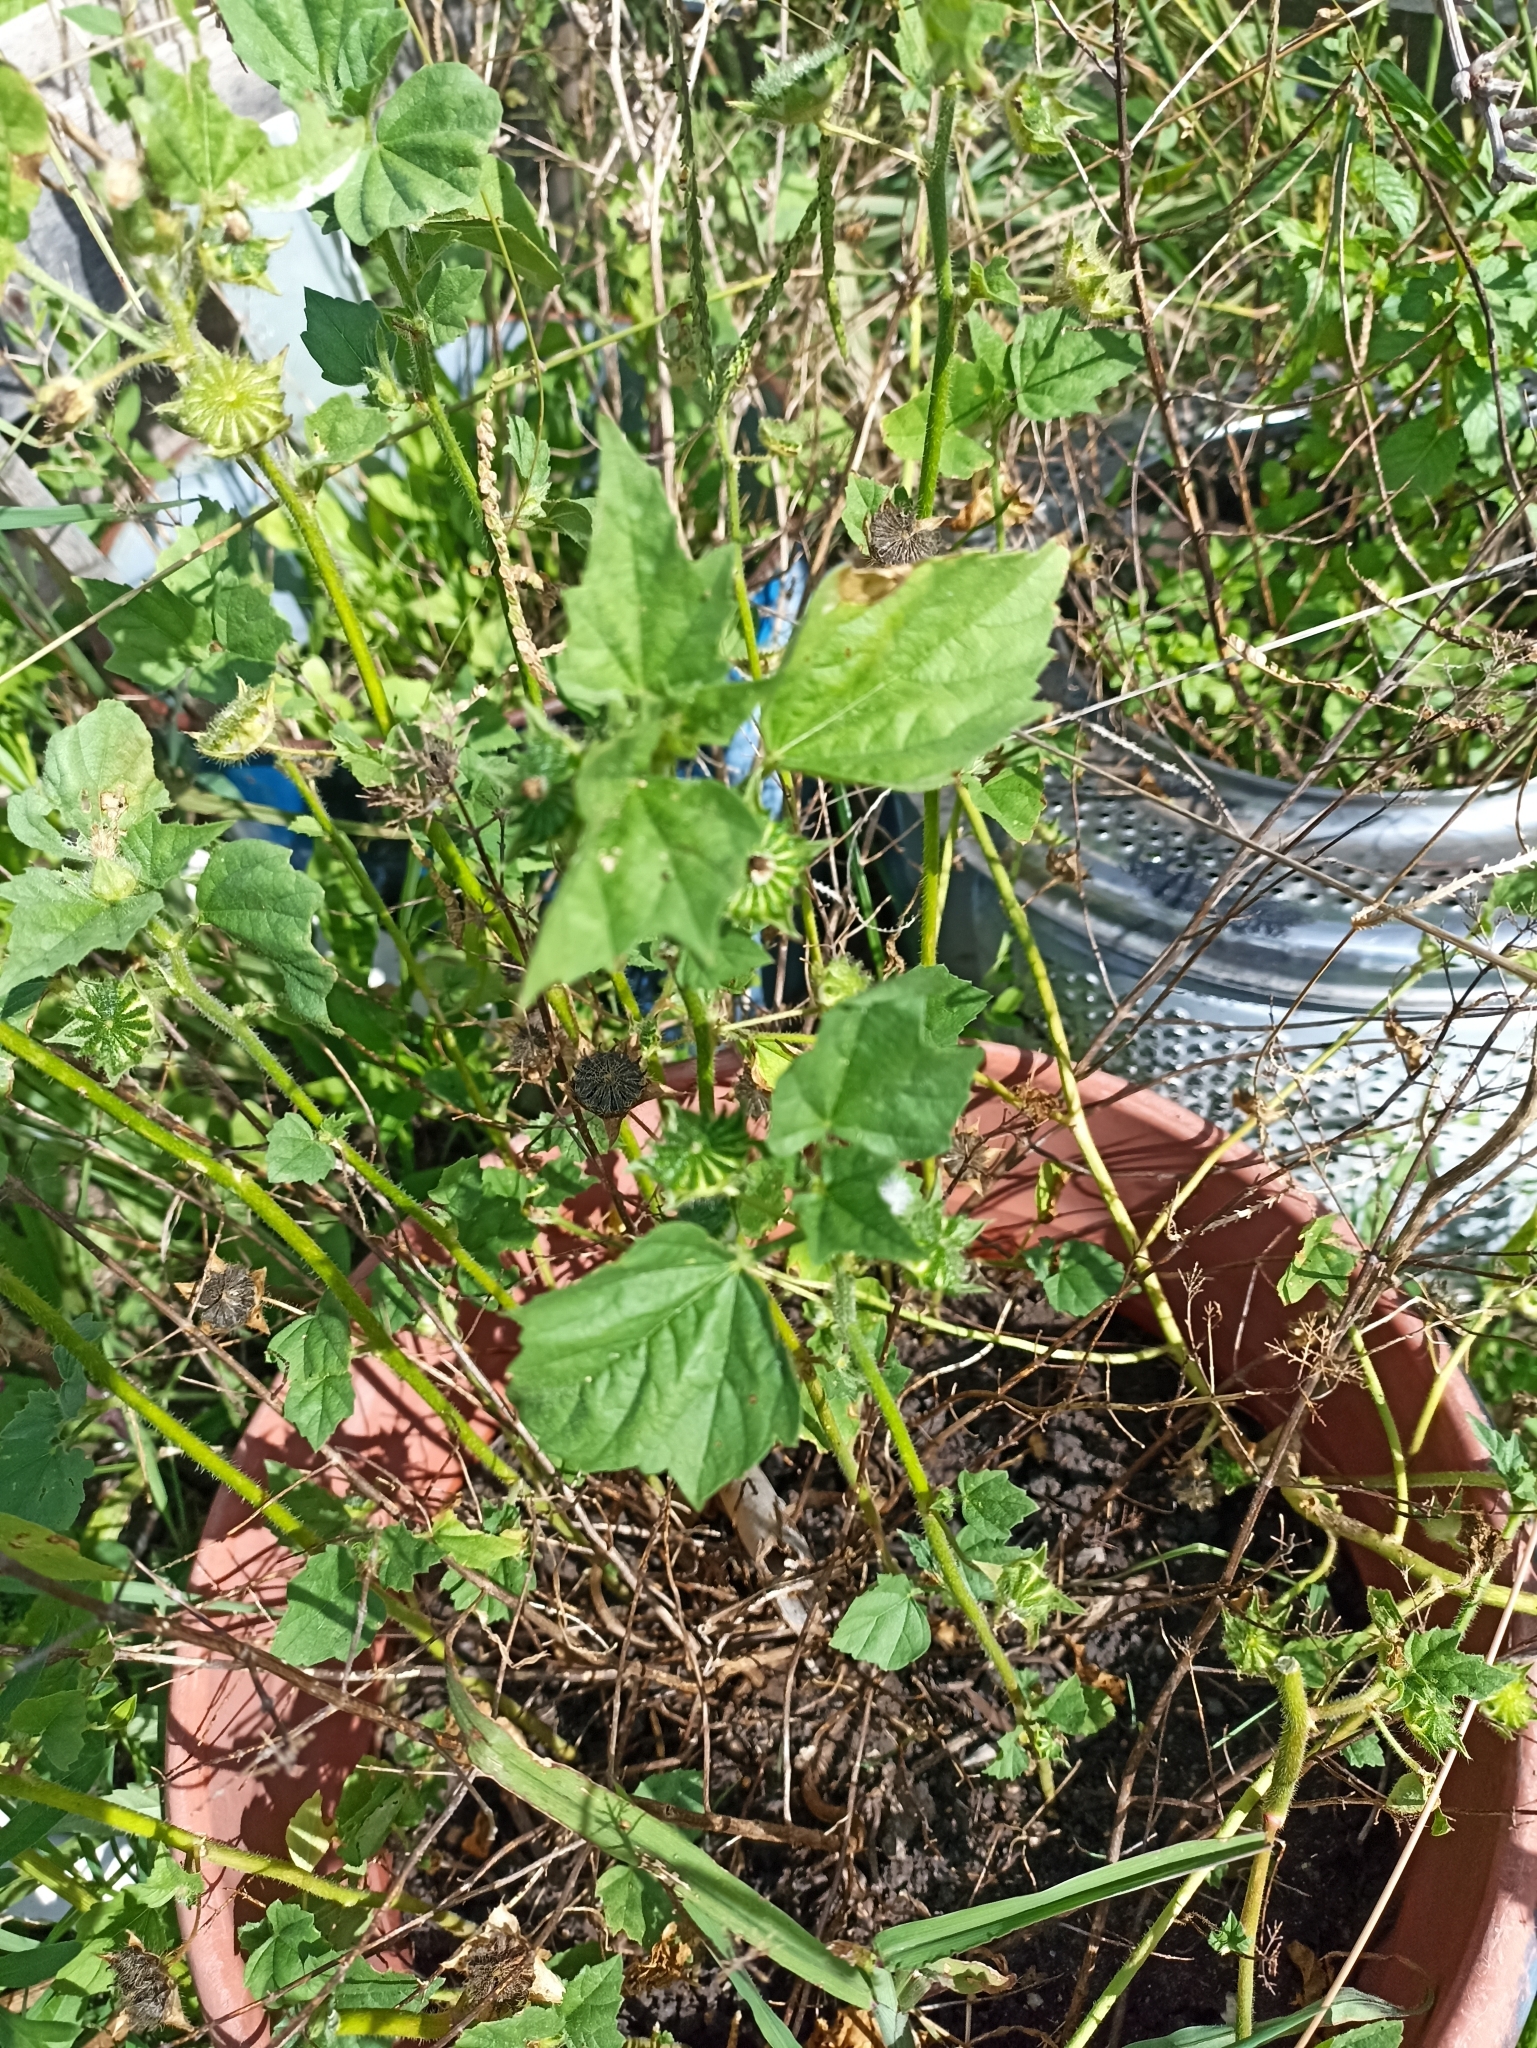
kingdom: Plantae
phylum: Tracheophyta
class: Magnoliopsida
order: Malvales
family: Malvaceae
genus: Anoda
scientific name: Anoda cristata
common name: Spurred anoda
